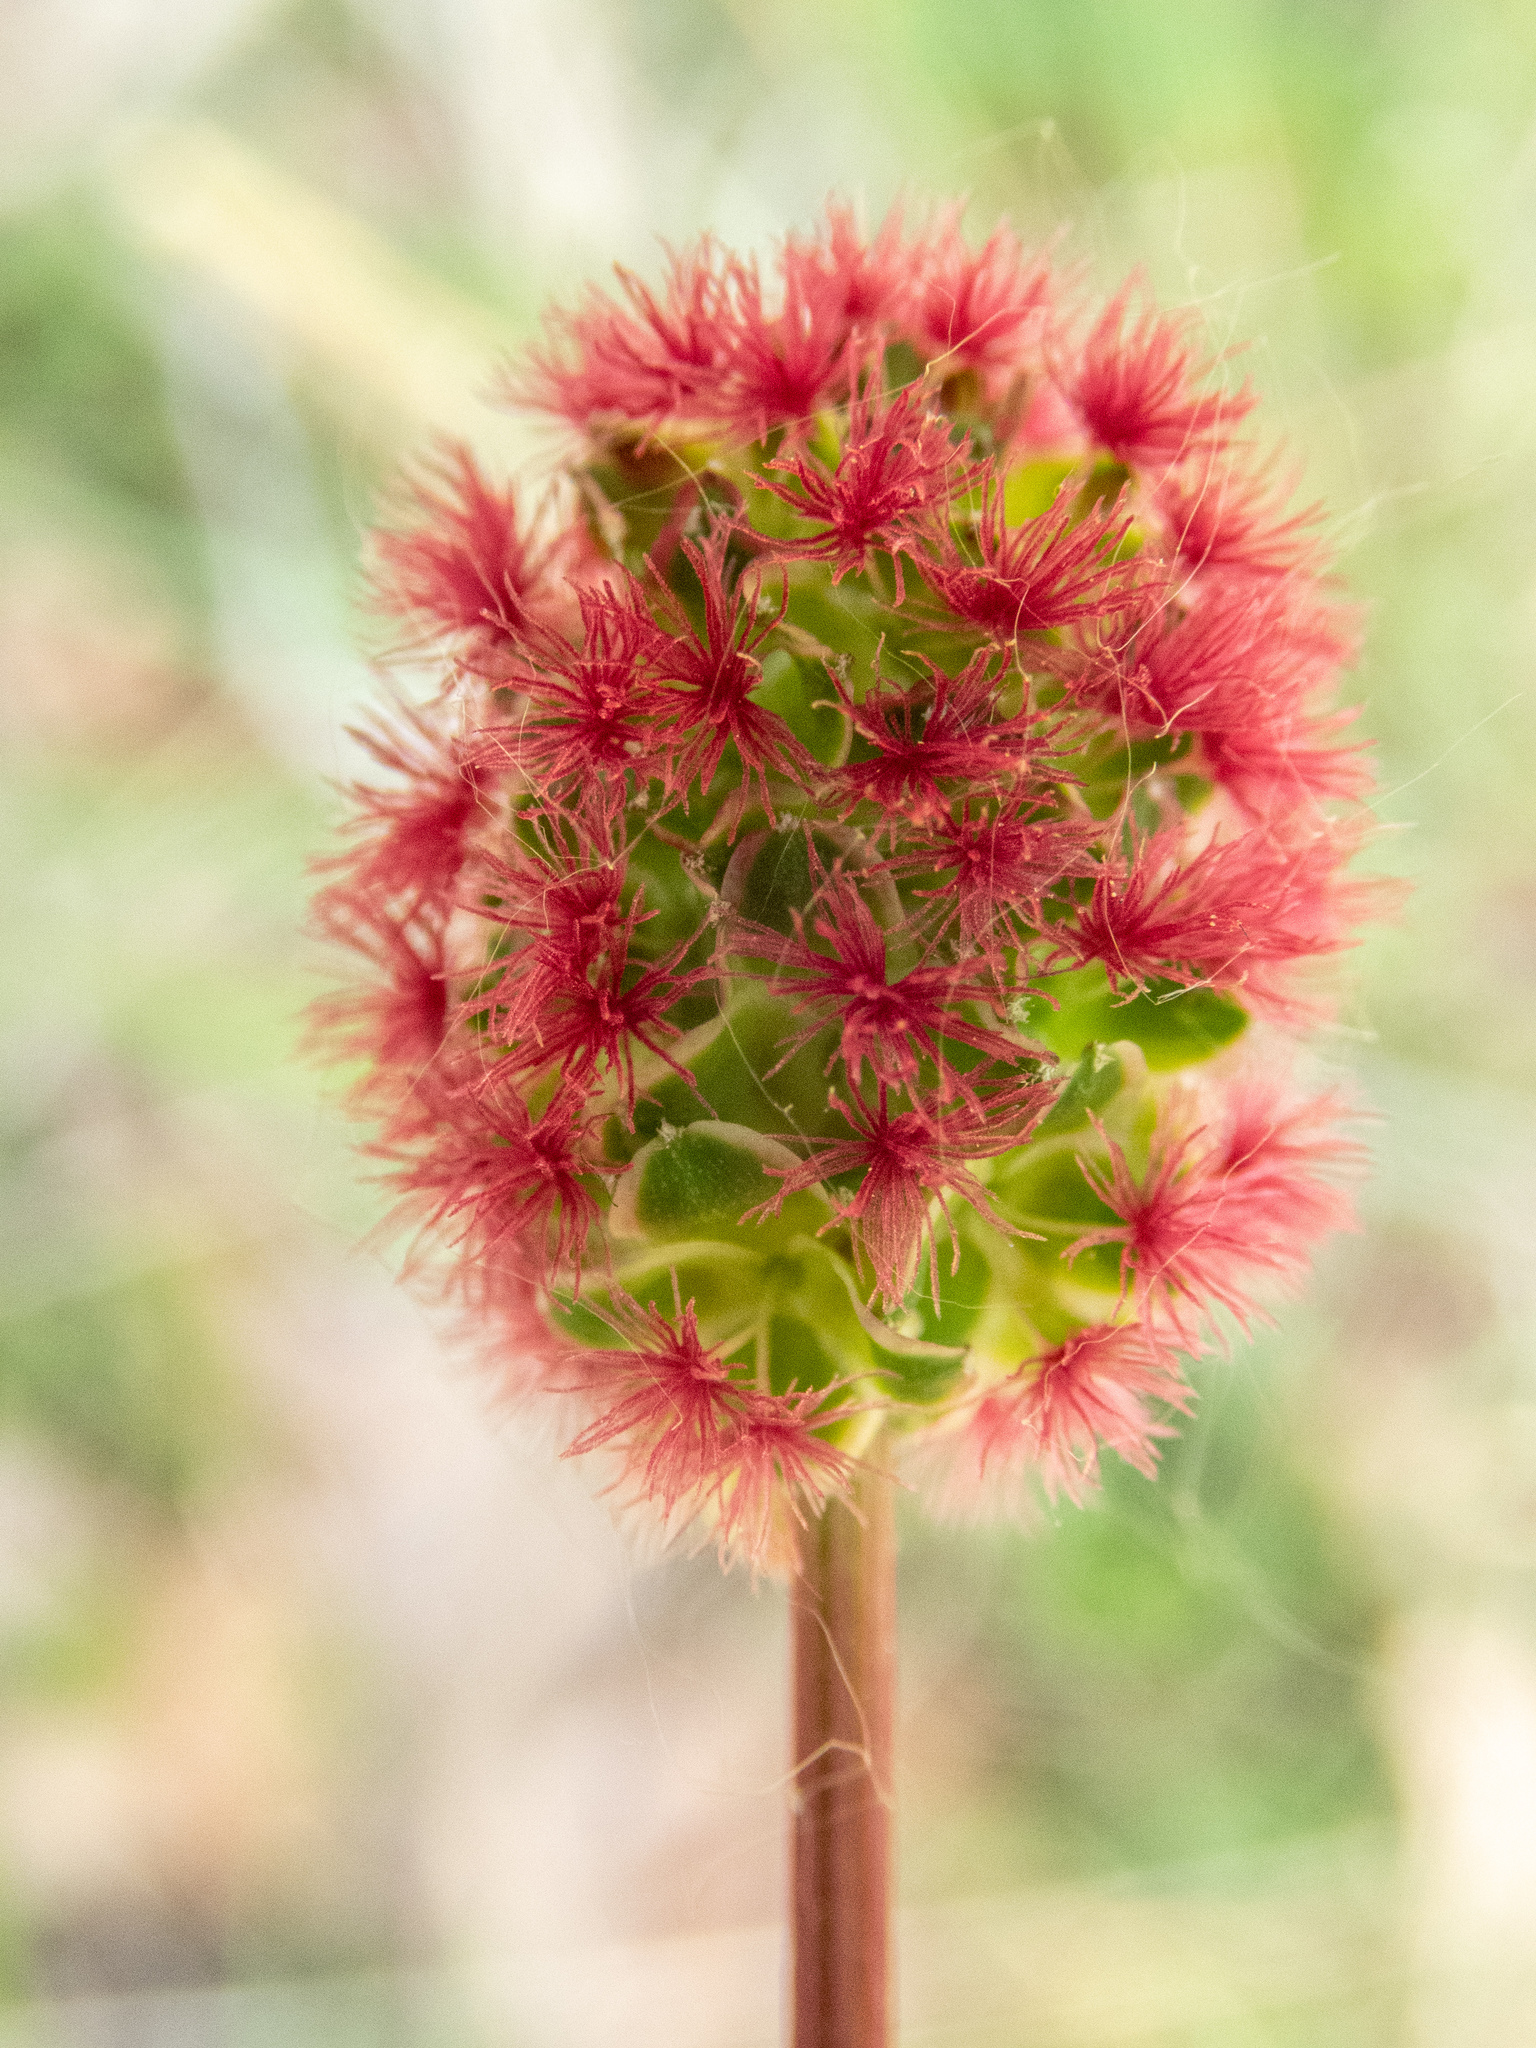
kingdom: Plantae
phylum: Tracheophyta
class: Magnoliopsida
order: Rosales
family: Rosaceae
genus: Poterium
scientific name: Poterium sanguisorba
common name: Salad burnet
